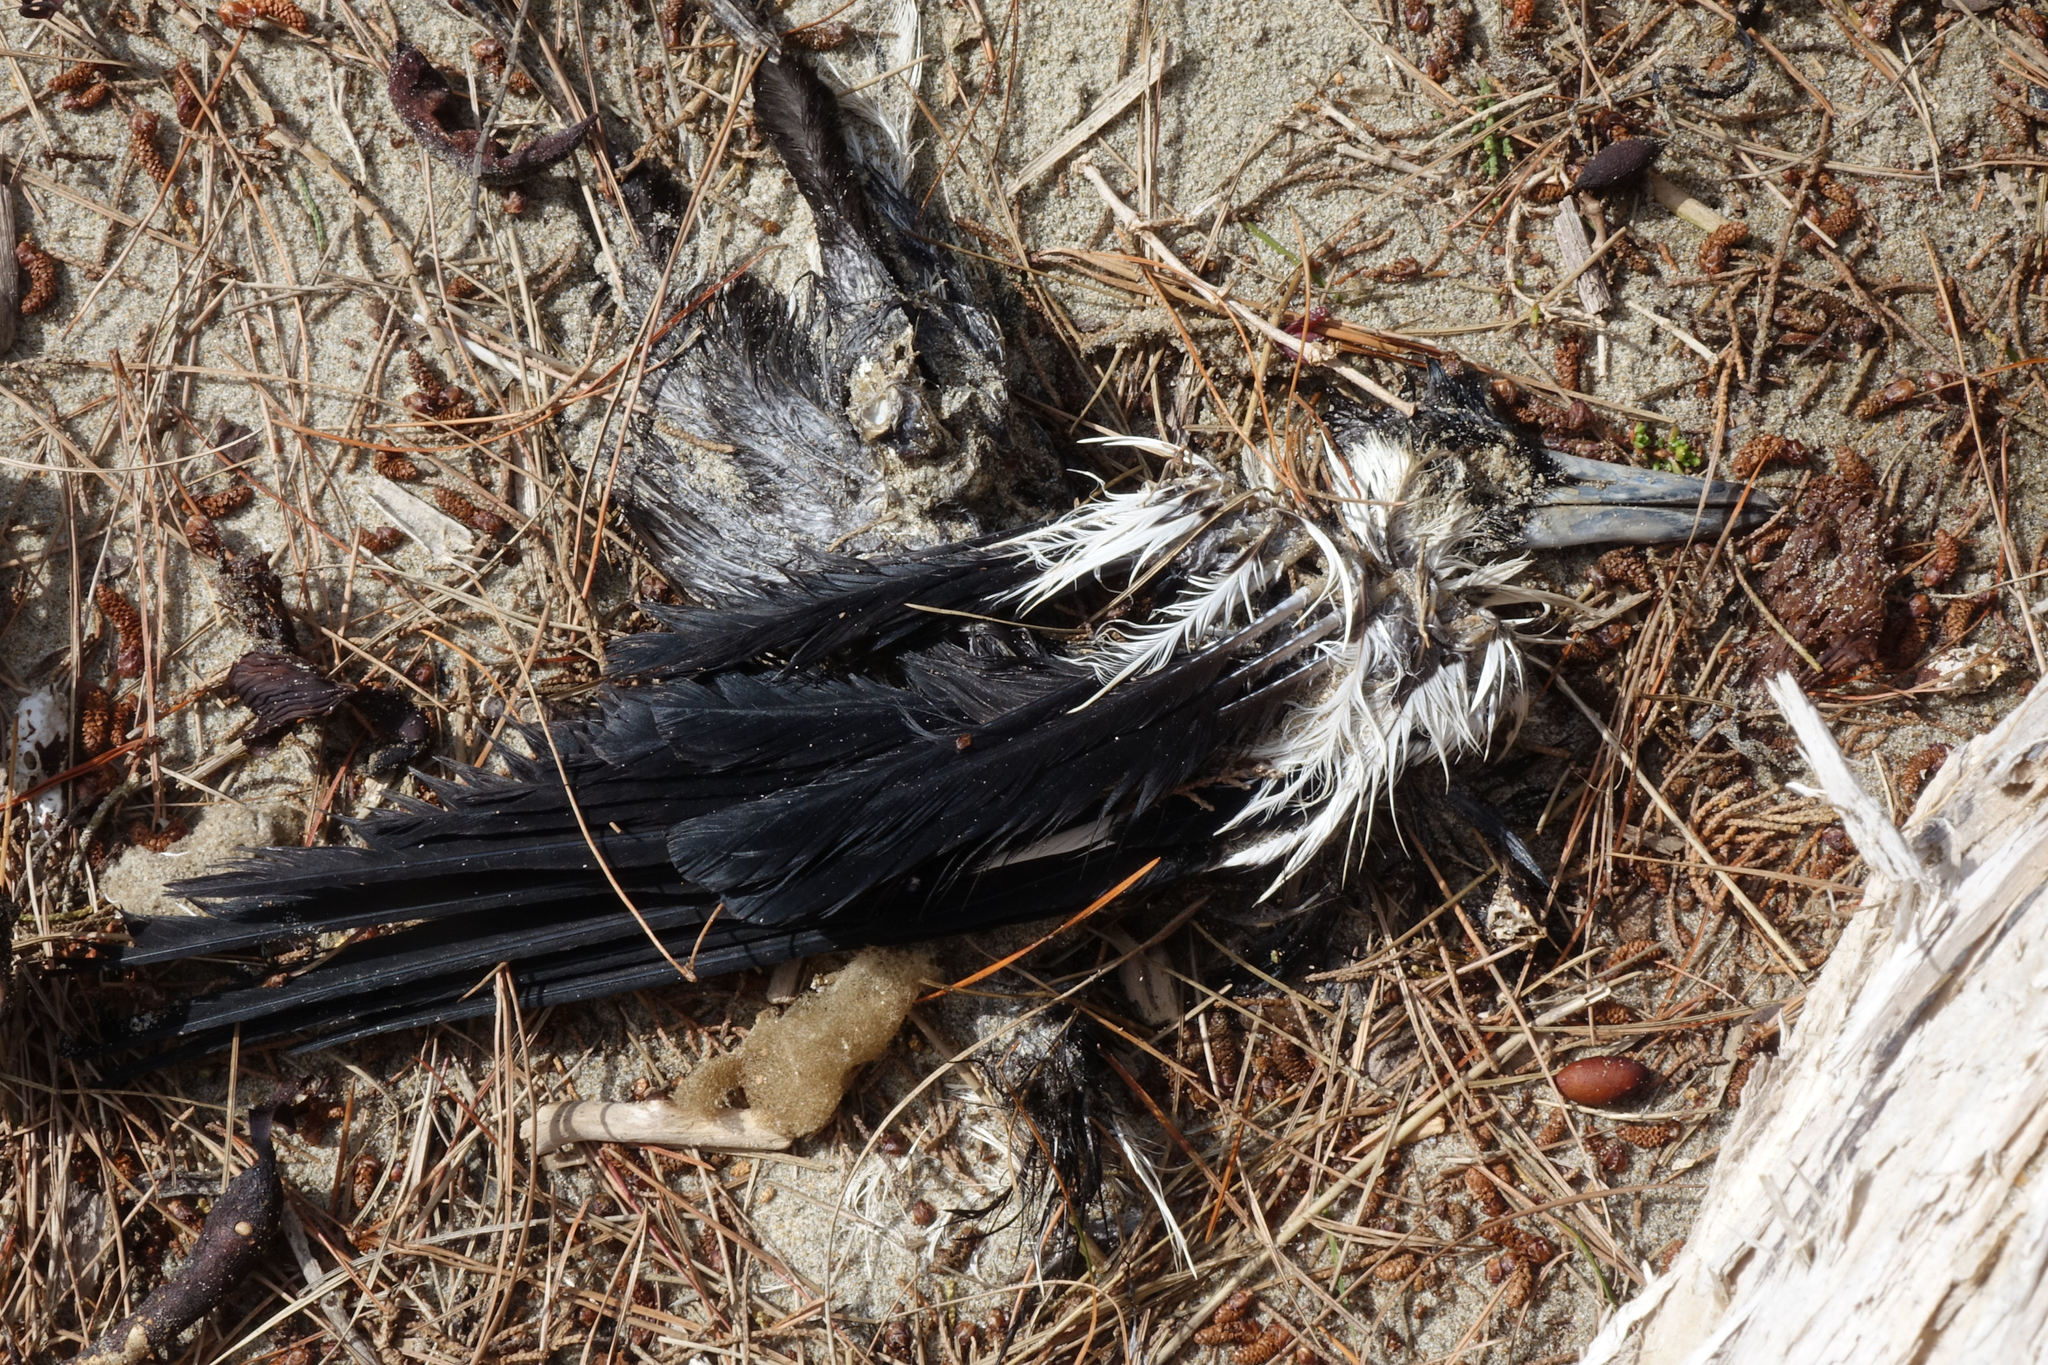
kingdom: Animalia
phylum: Chordata
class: Aves
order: Passeriformes
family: Cracticidae
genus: Gymnorhina
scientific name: Gymnorhina tibicen
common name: Australian magpie
